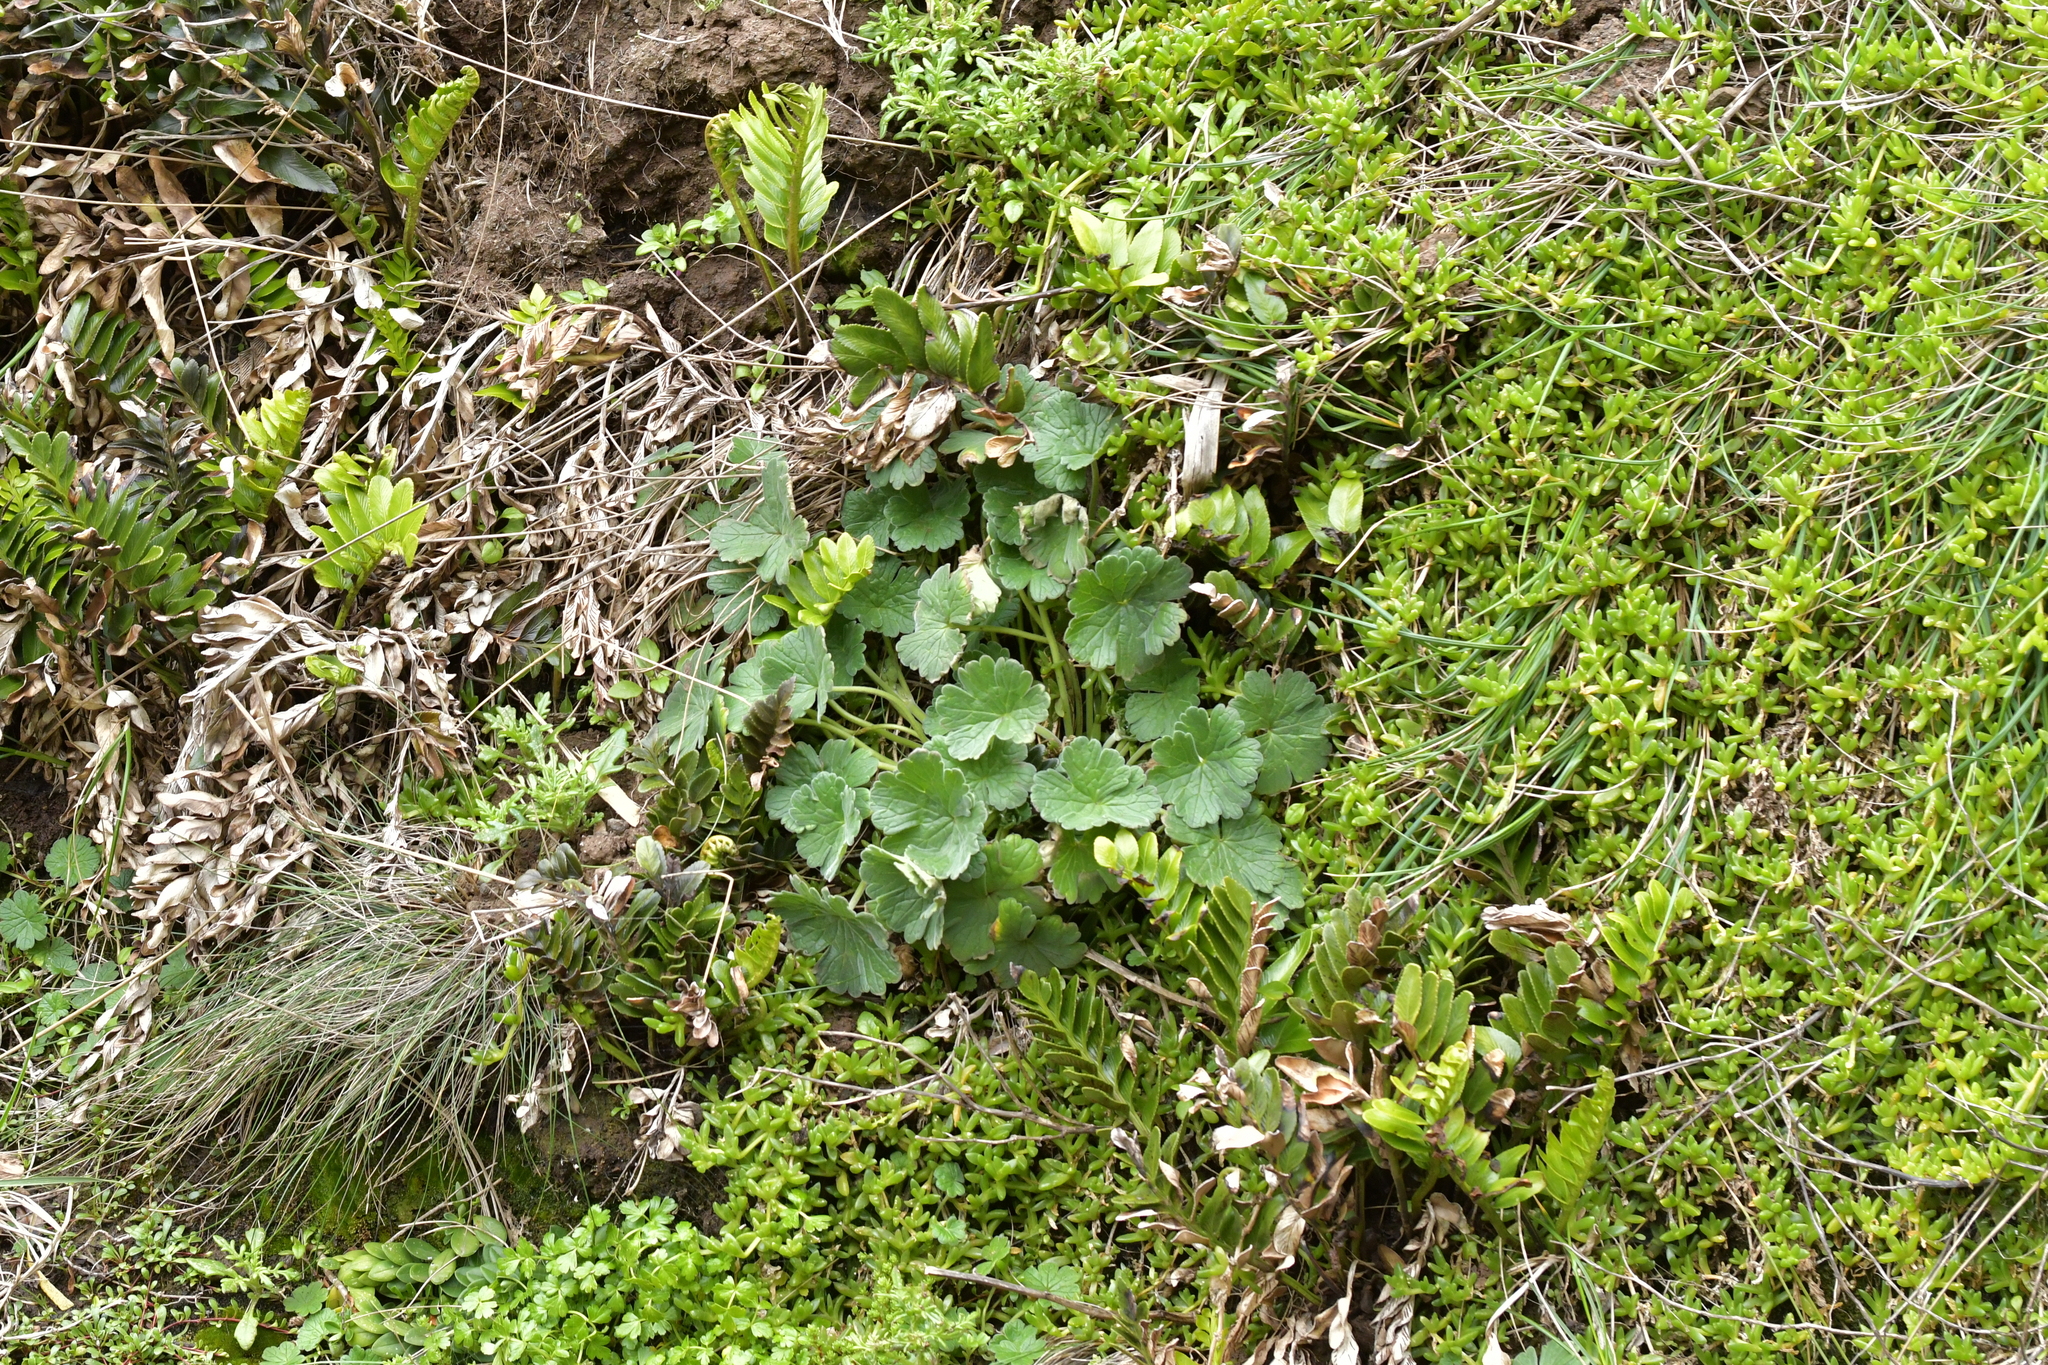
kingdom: Plantae
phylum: Tracheophyta
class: Magnoliopsida
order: Geraniales
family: Geraniaceae
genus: Geranium
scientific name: Geranium traversii
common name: Cranesbill
